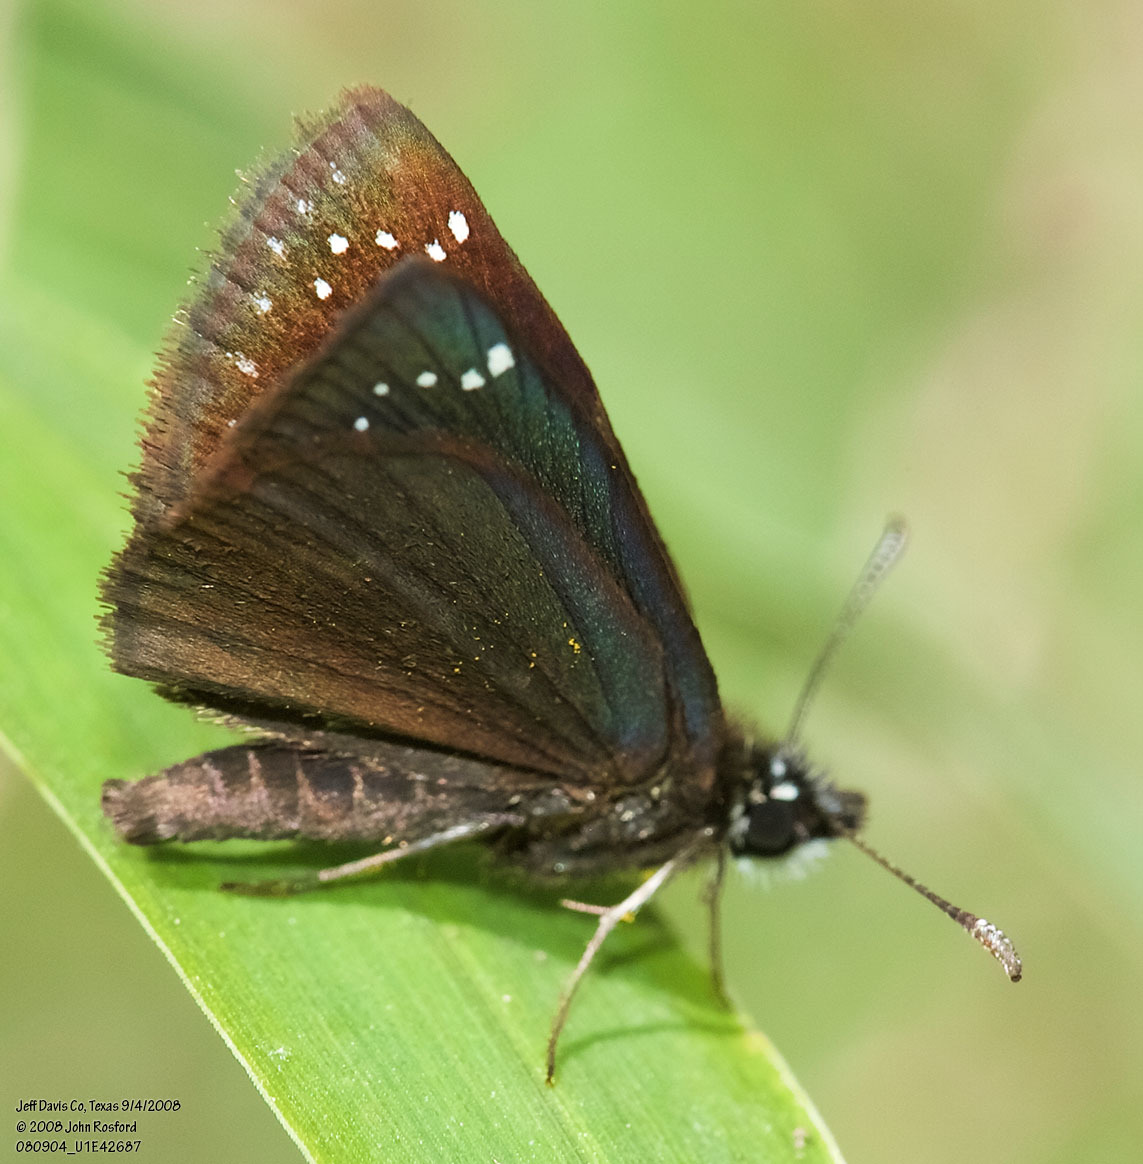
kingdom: Animalia
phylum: Arthropoda
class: Insecta
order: Lepidoptera
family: Hesperiidae
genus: Pholisora
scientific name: Pholisora catullus
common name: Common sootywing
